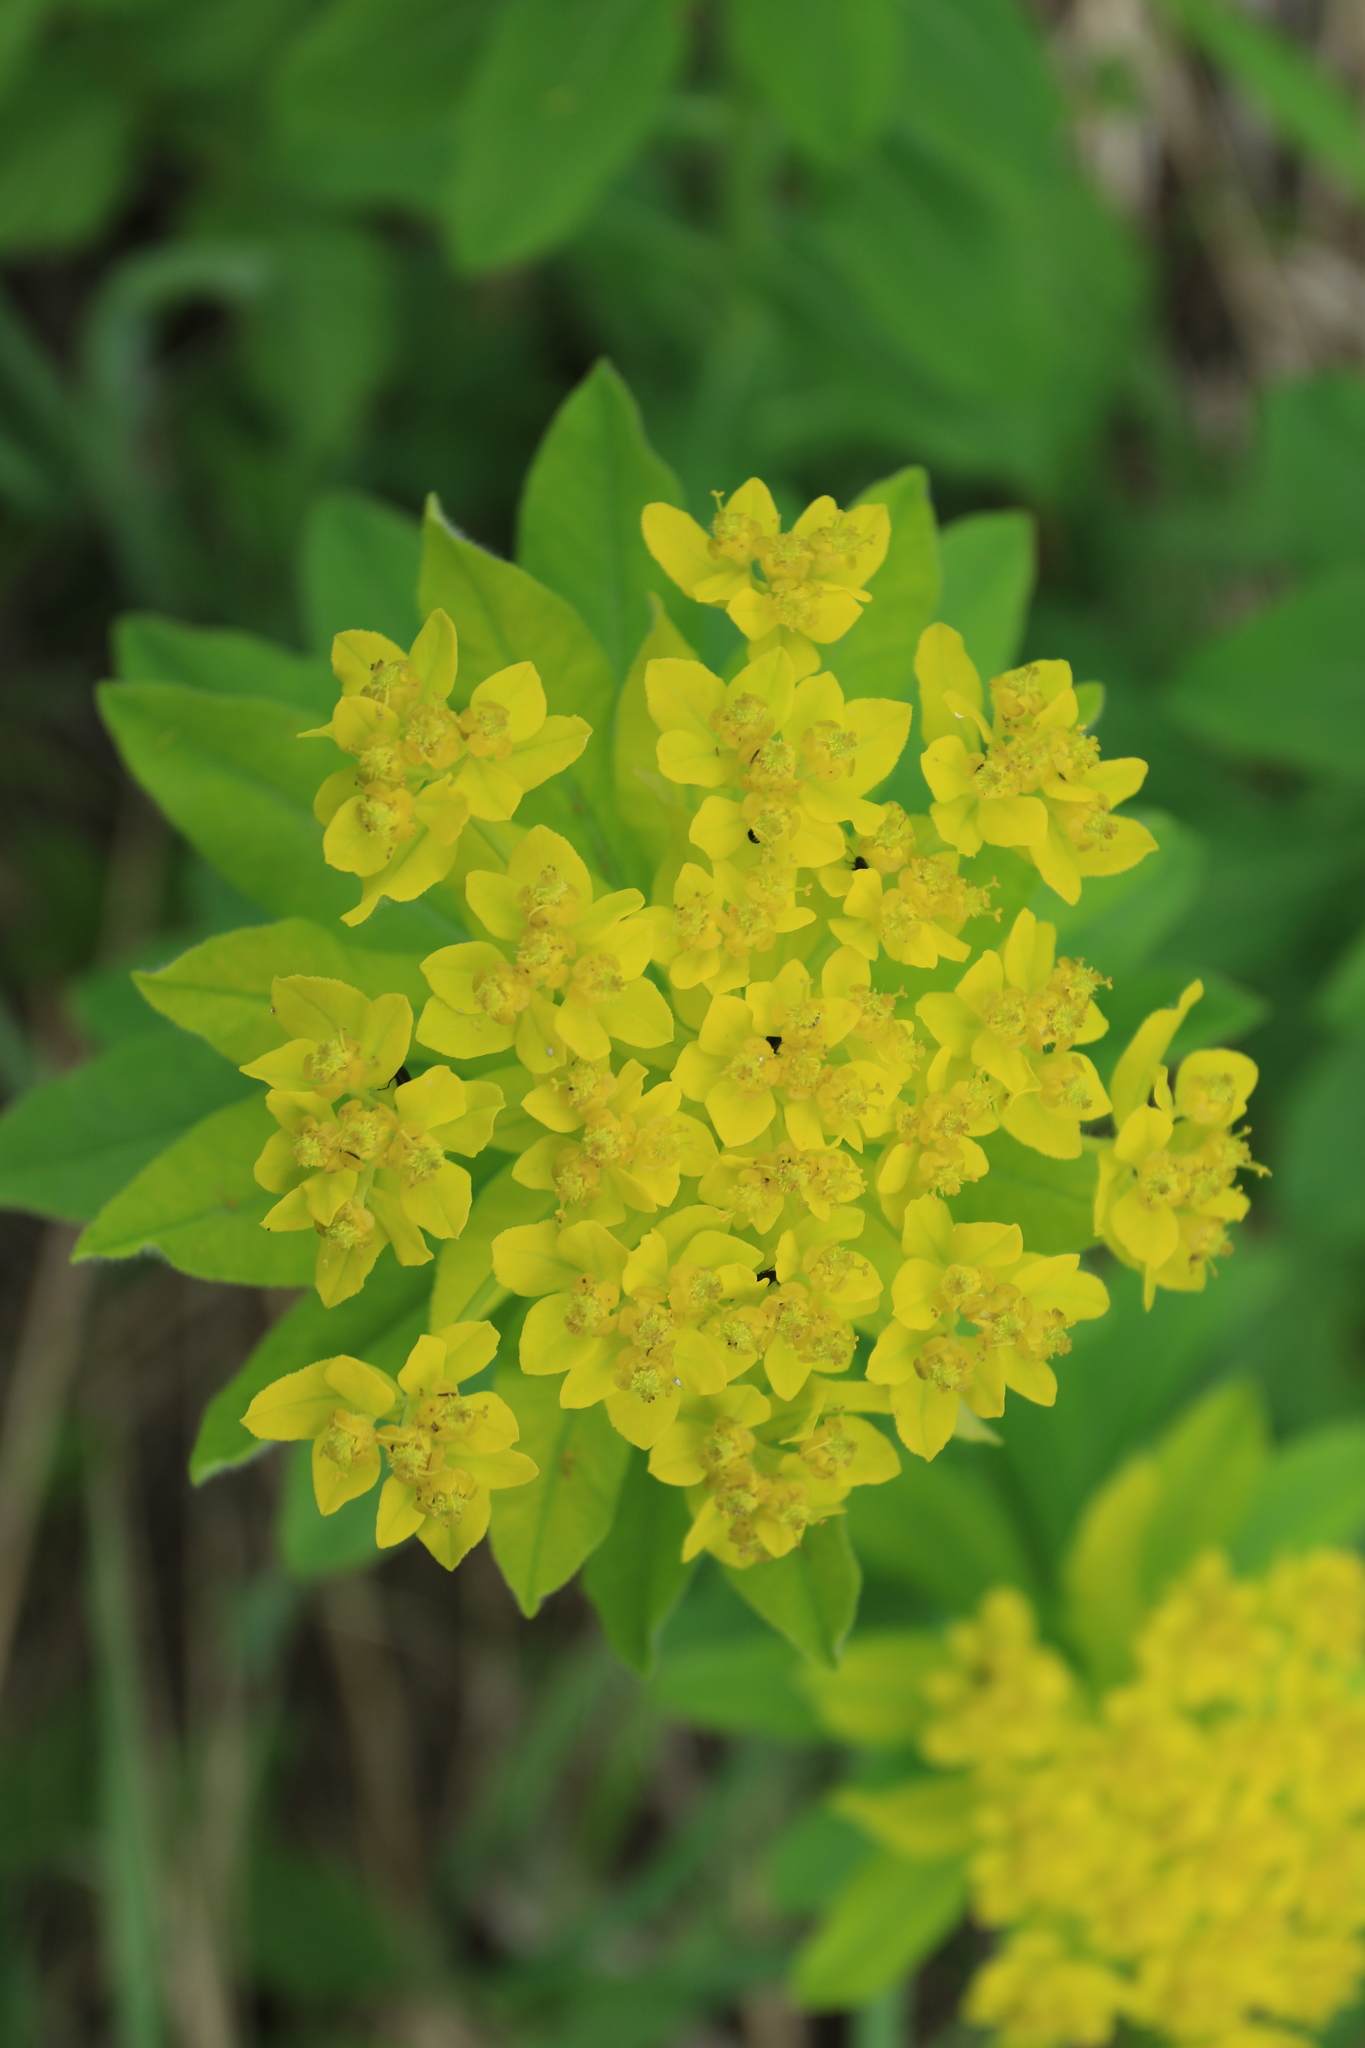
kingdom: Plantae
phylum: Tracheophyta
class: Magnoliopsida
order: Malpighiales
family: Euphorbiaceae
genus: Euphorbia
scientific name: Euphorbia pilosa
